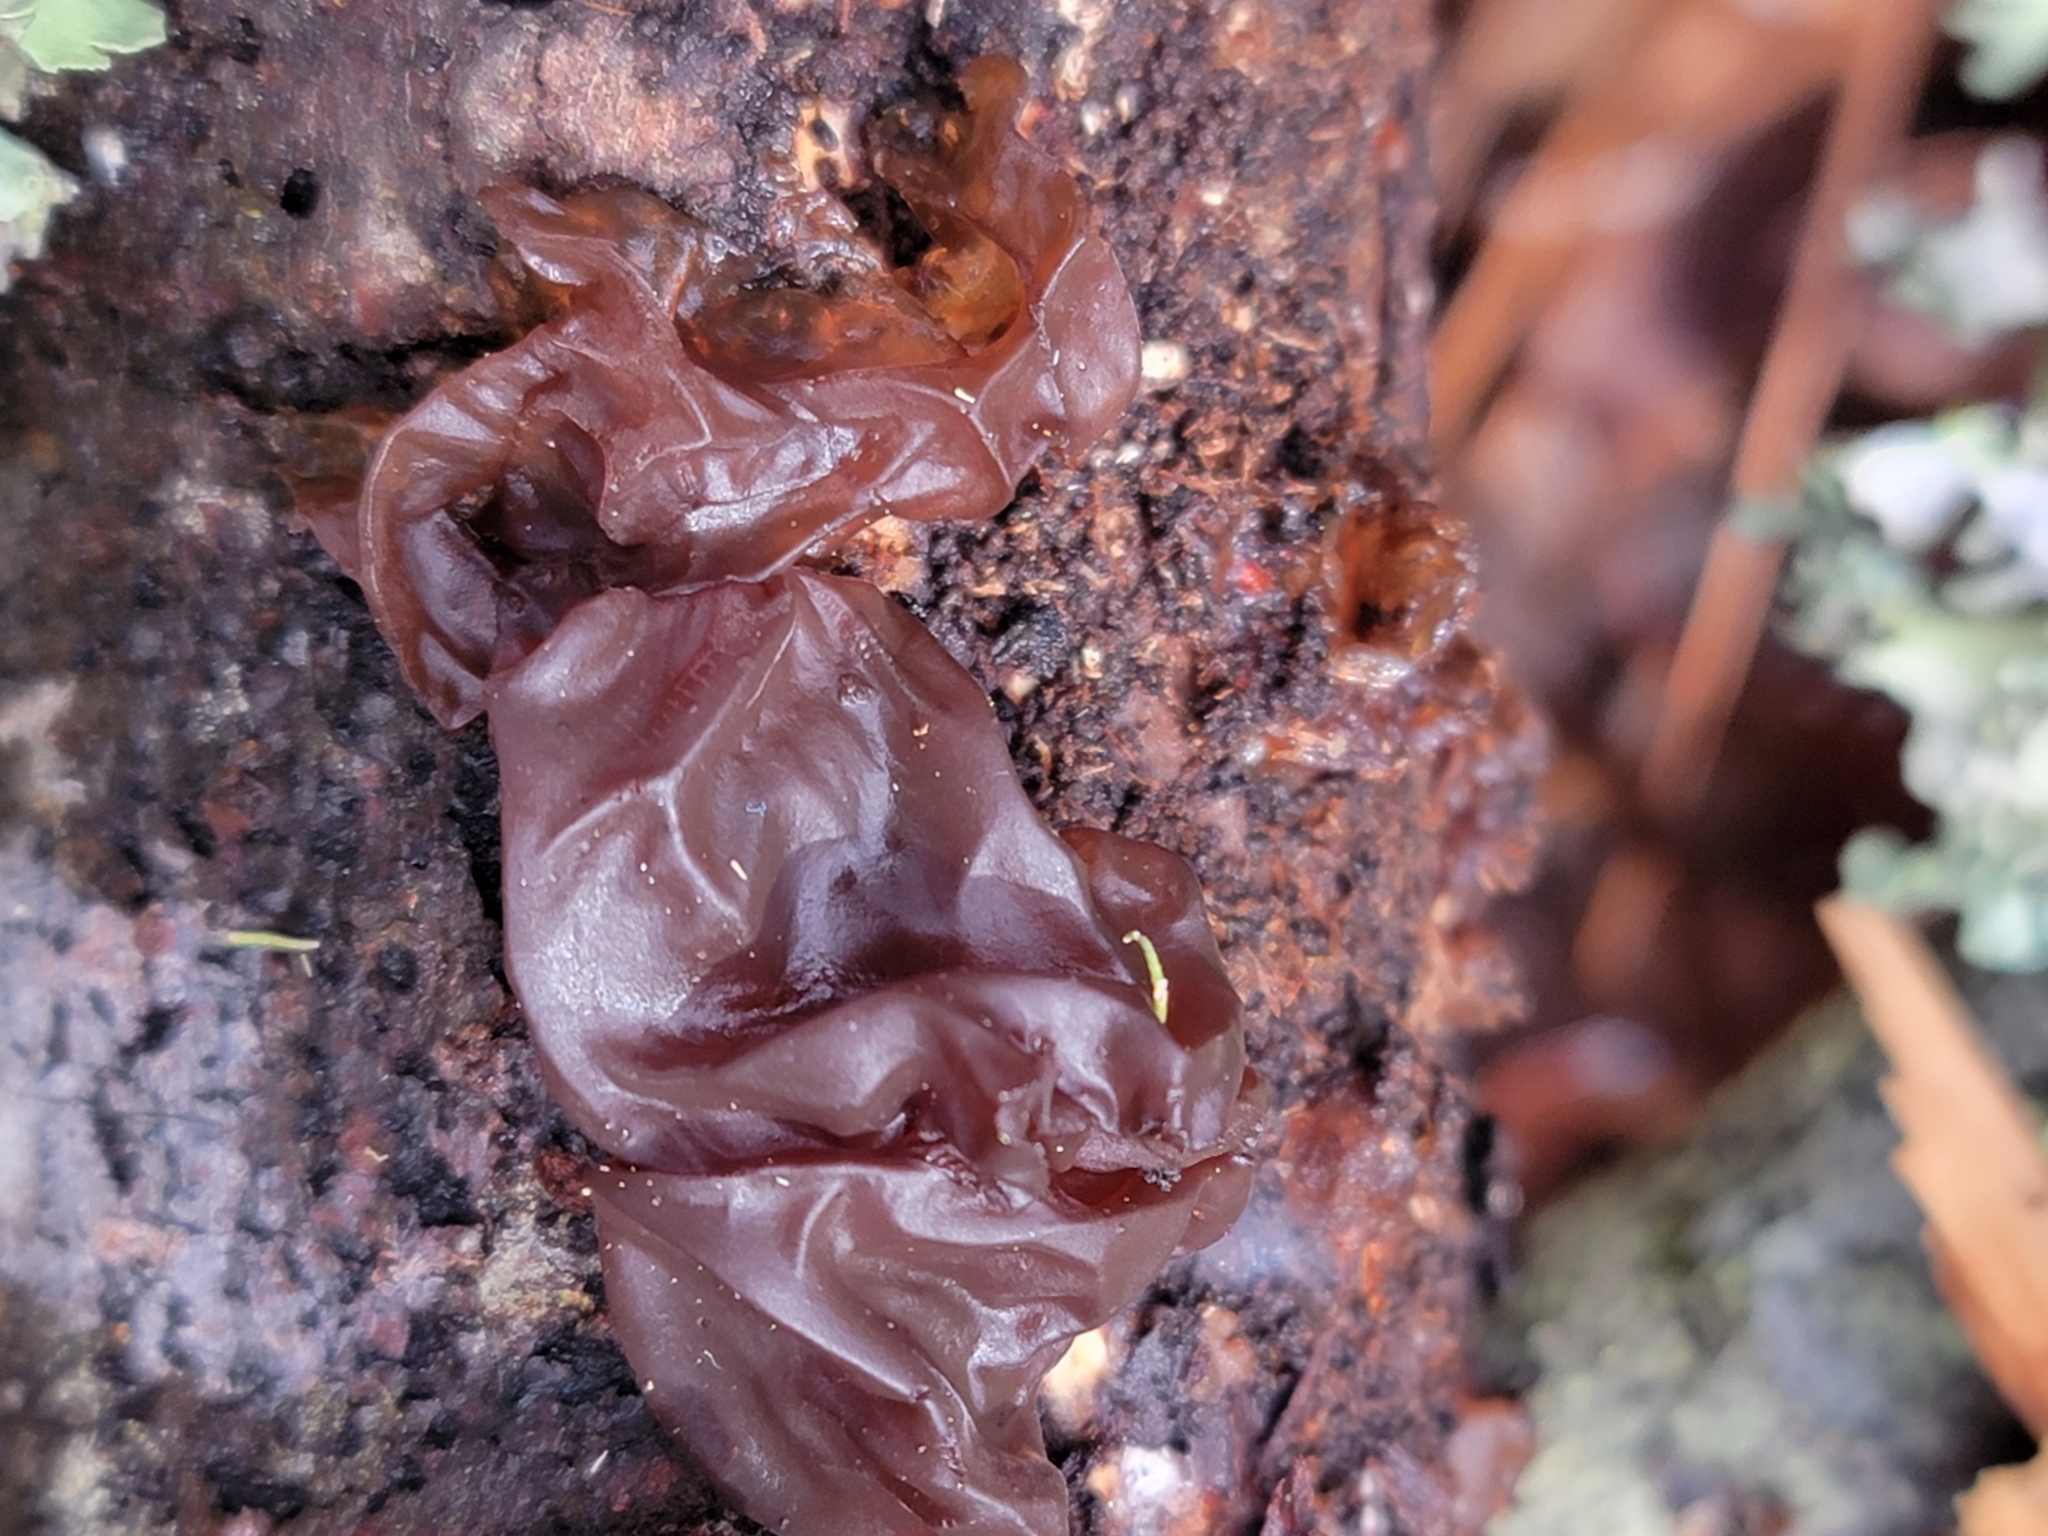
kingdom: Fungi
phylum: Basidiomycota
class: Agaricomycetes
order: Auriculariales
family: Auriculariaceae
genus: Exidia
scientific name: Exidia
